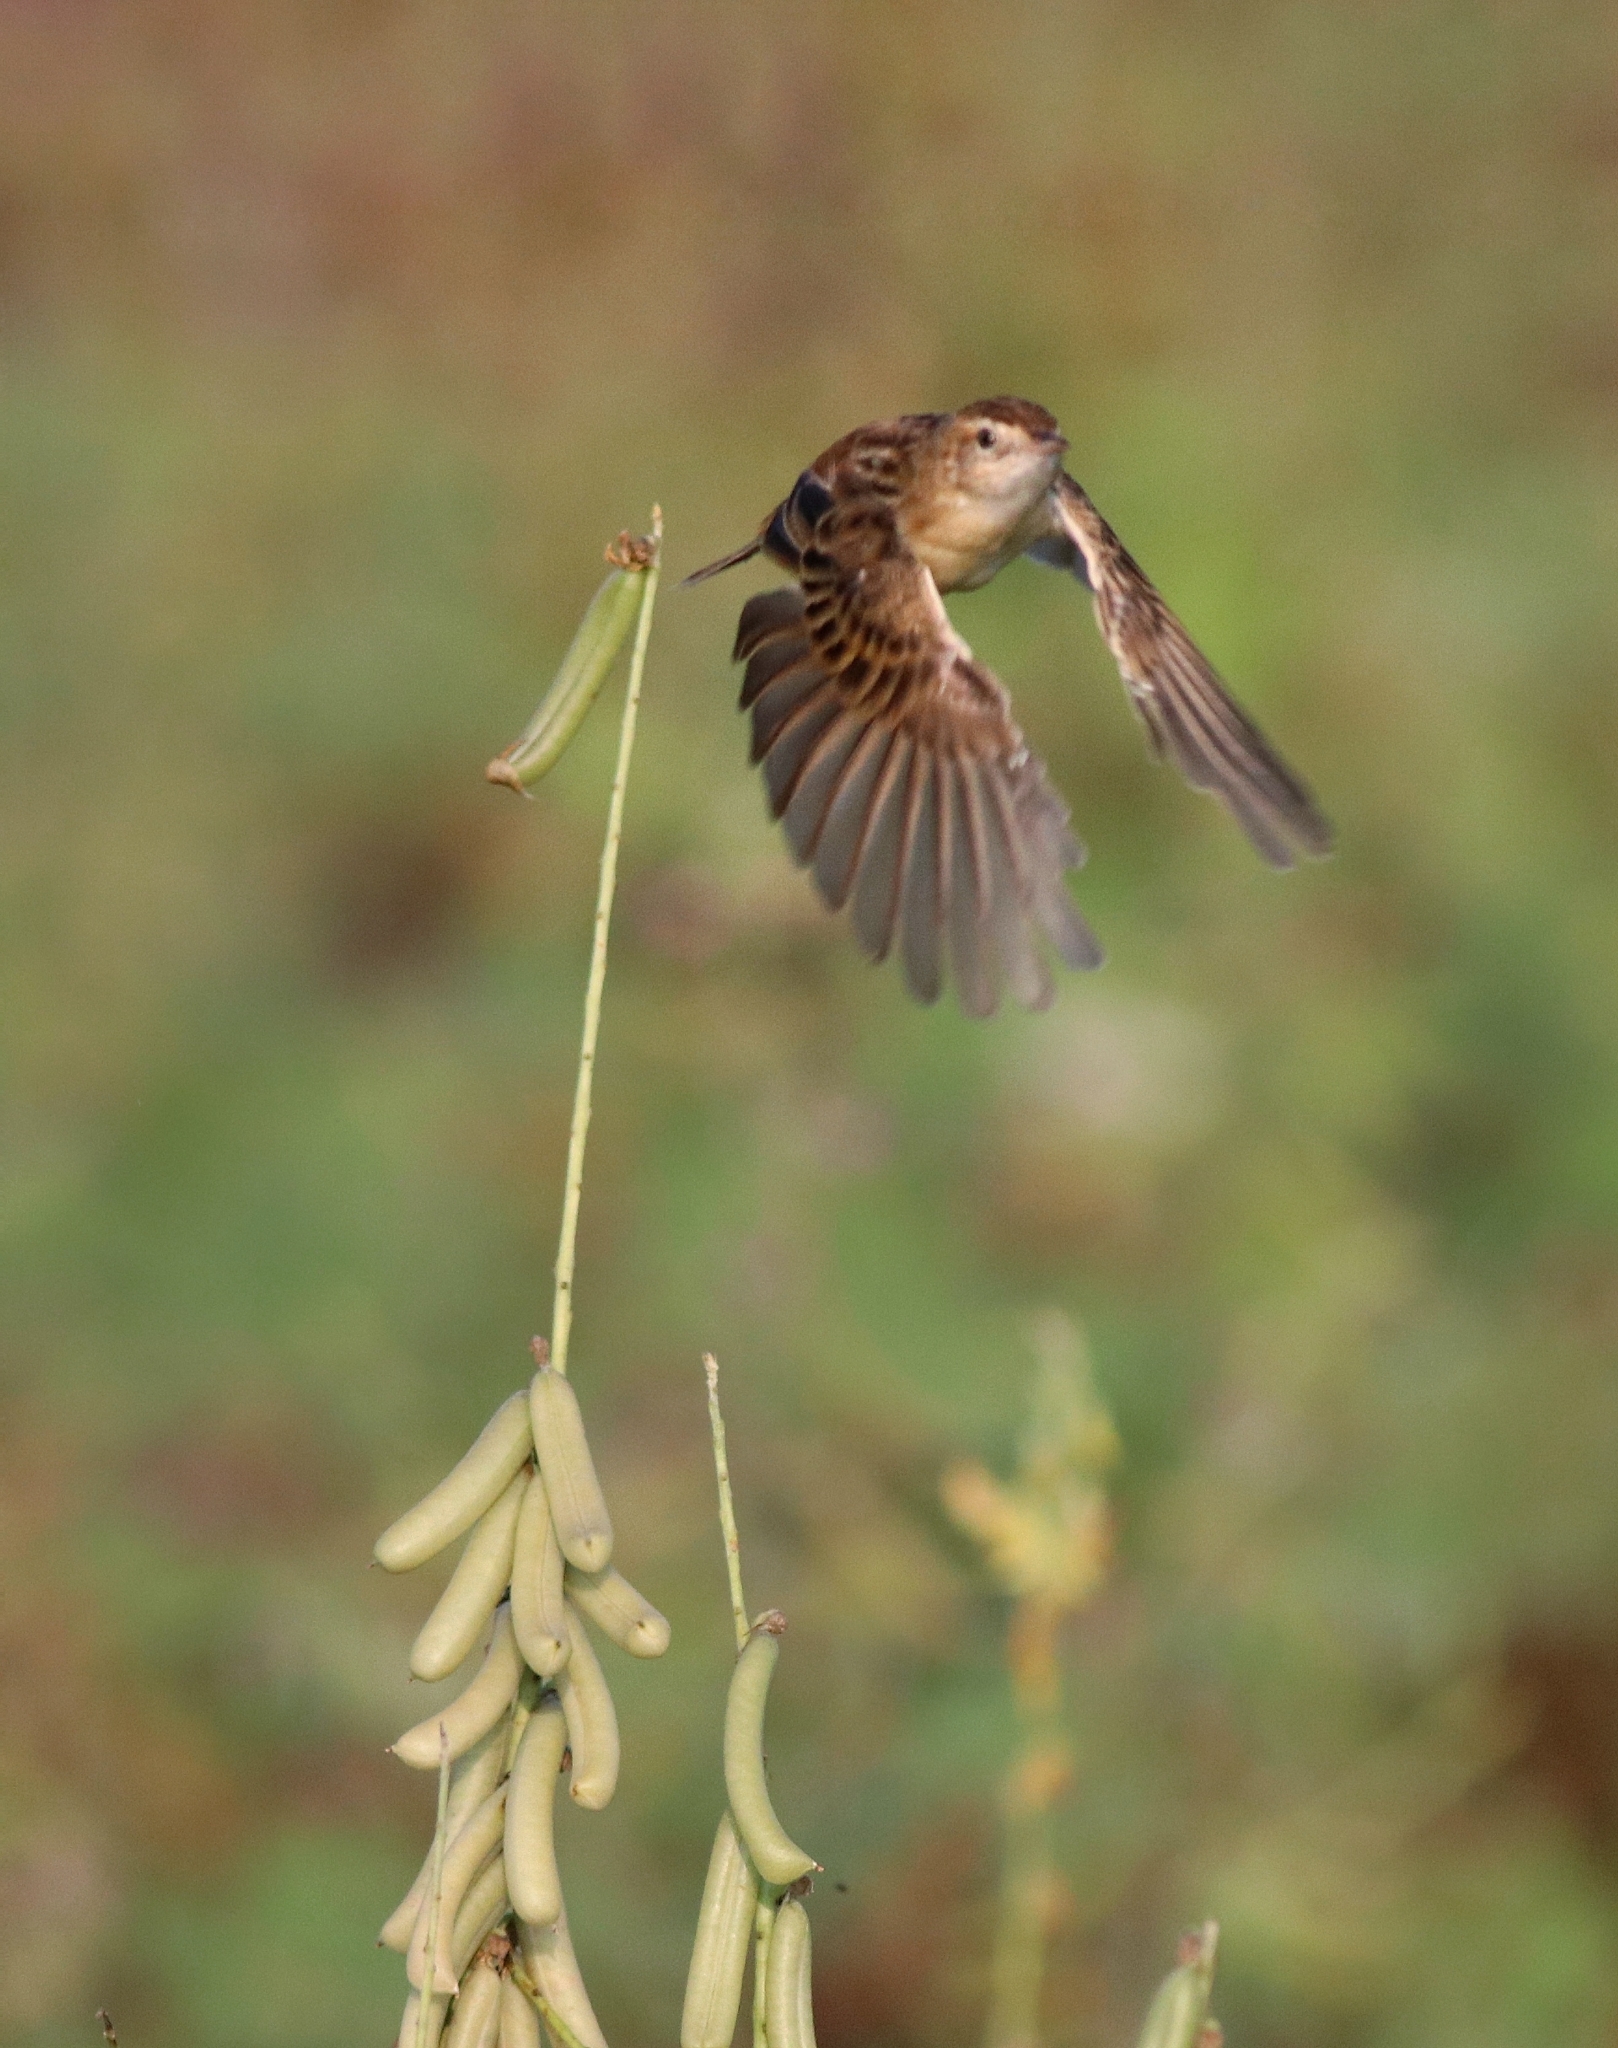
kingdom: Animalia
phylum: Chordata
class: Aves
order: Passeriformes
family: Cisticolidae
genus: Cisticola
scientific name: Cisticola juncidis
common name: Zitting cisticola
